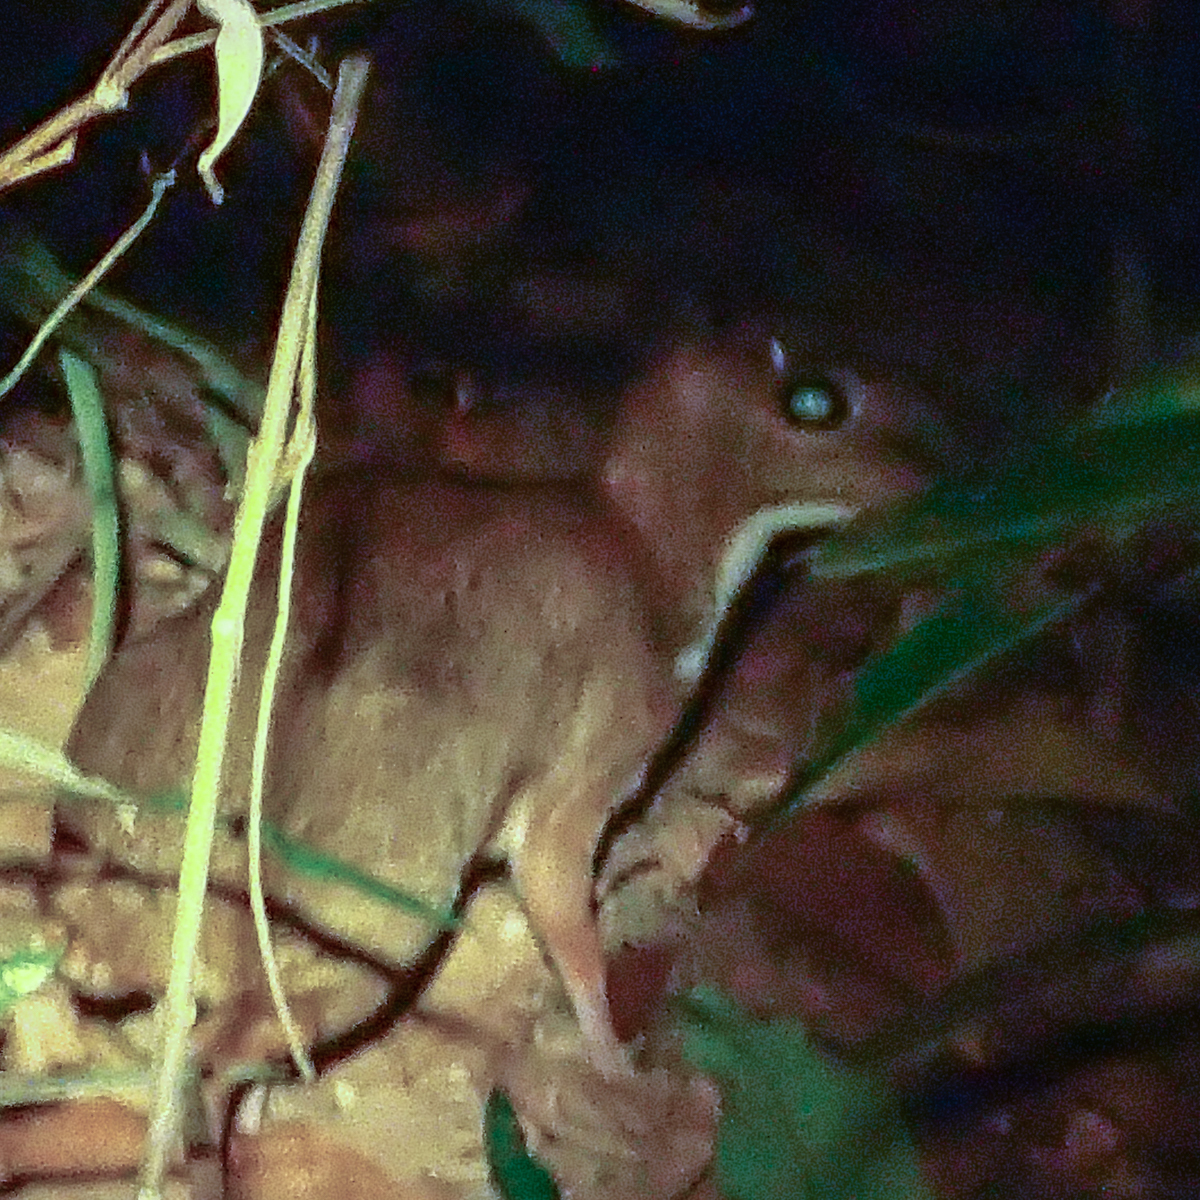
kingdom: Animalia
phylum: Chordata
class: Mammalia
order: Artiodactyla
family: Tragulidae
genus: Tragulus
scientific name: Tragulus kanchil
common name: Lesser mouse-deer
